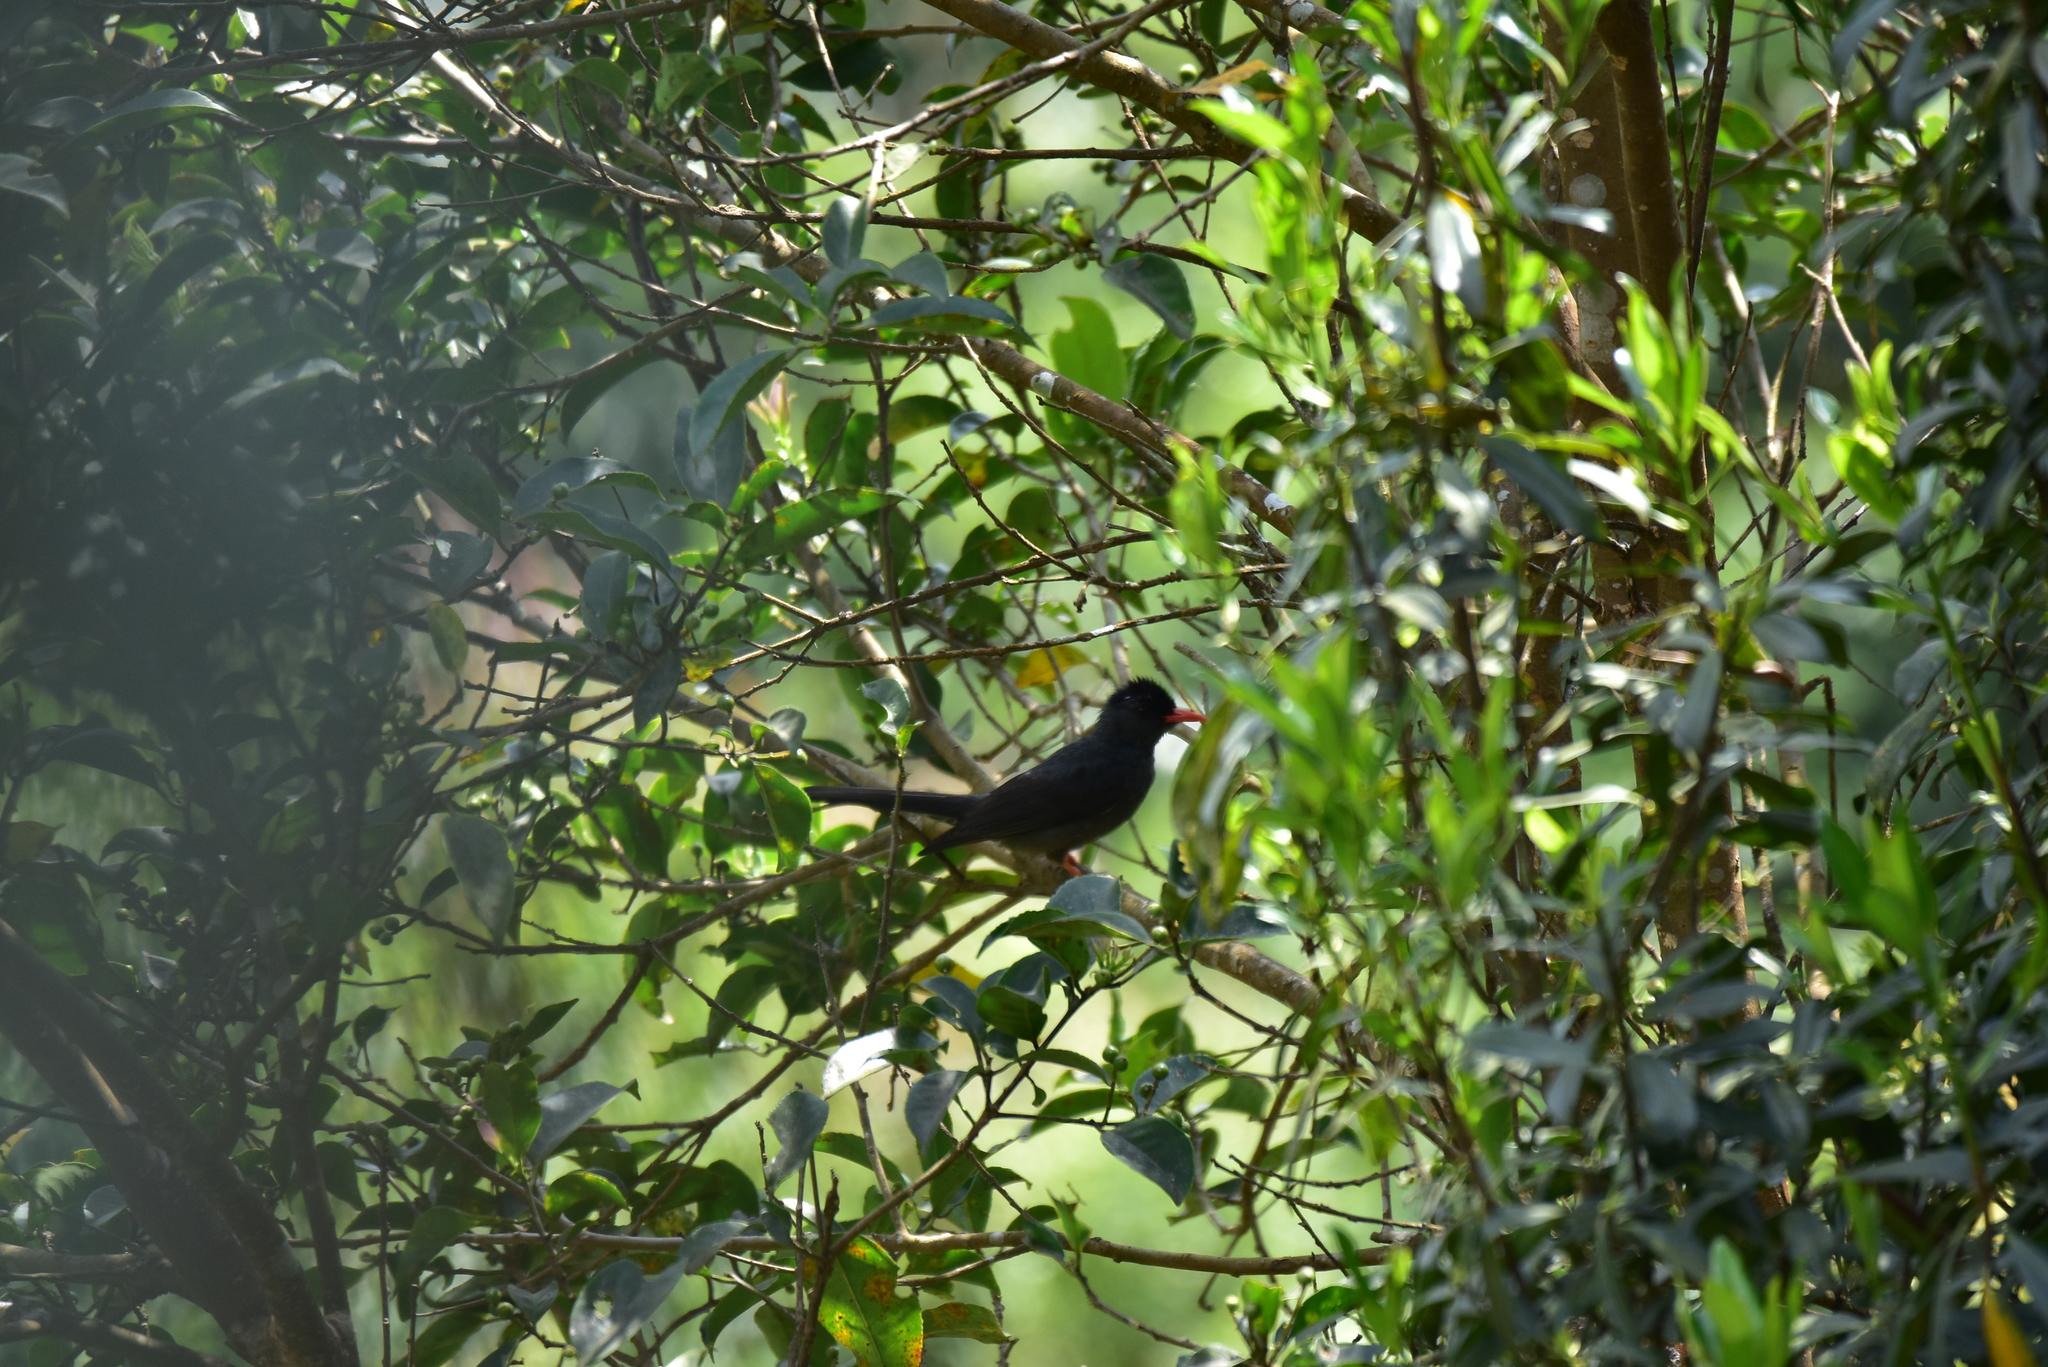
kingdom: Animalia
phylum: Chordata
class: Aves
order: Passeriformes
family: Pycnonotidae
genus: Hypsipetes
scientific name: Hypsipetes ganeesa
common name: Square-tailed bulbul
